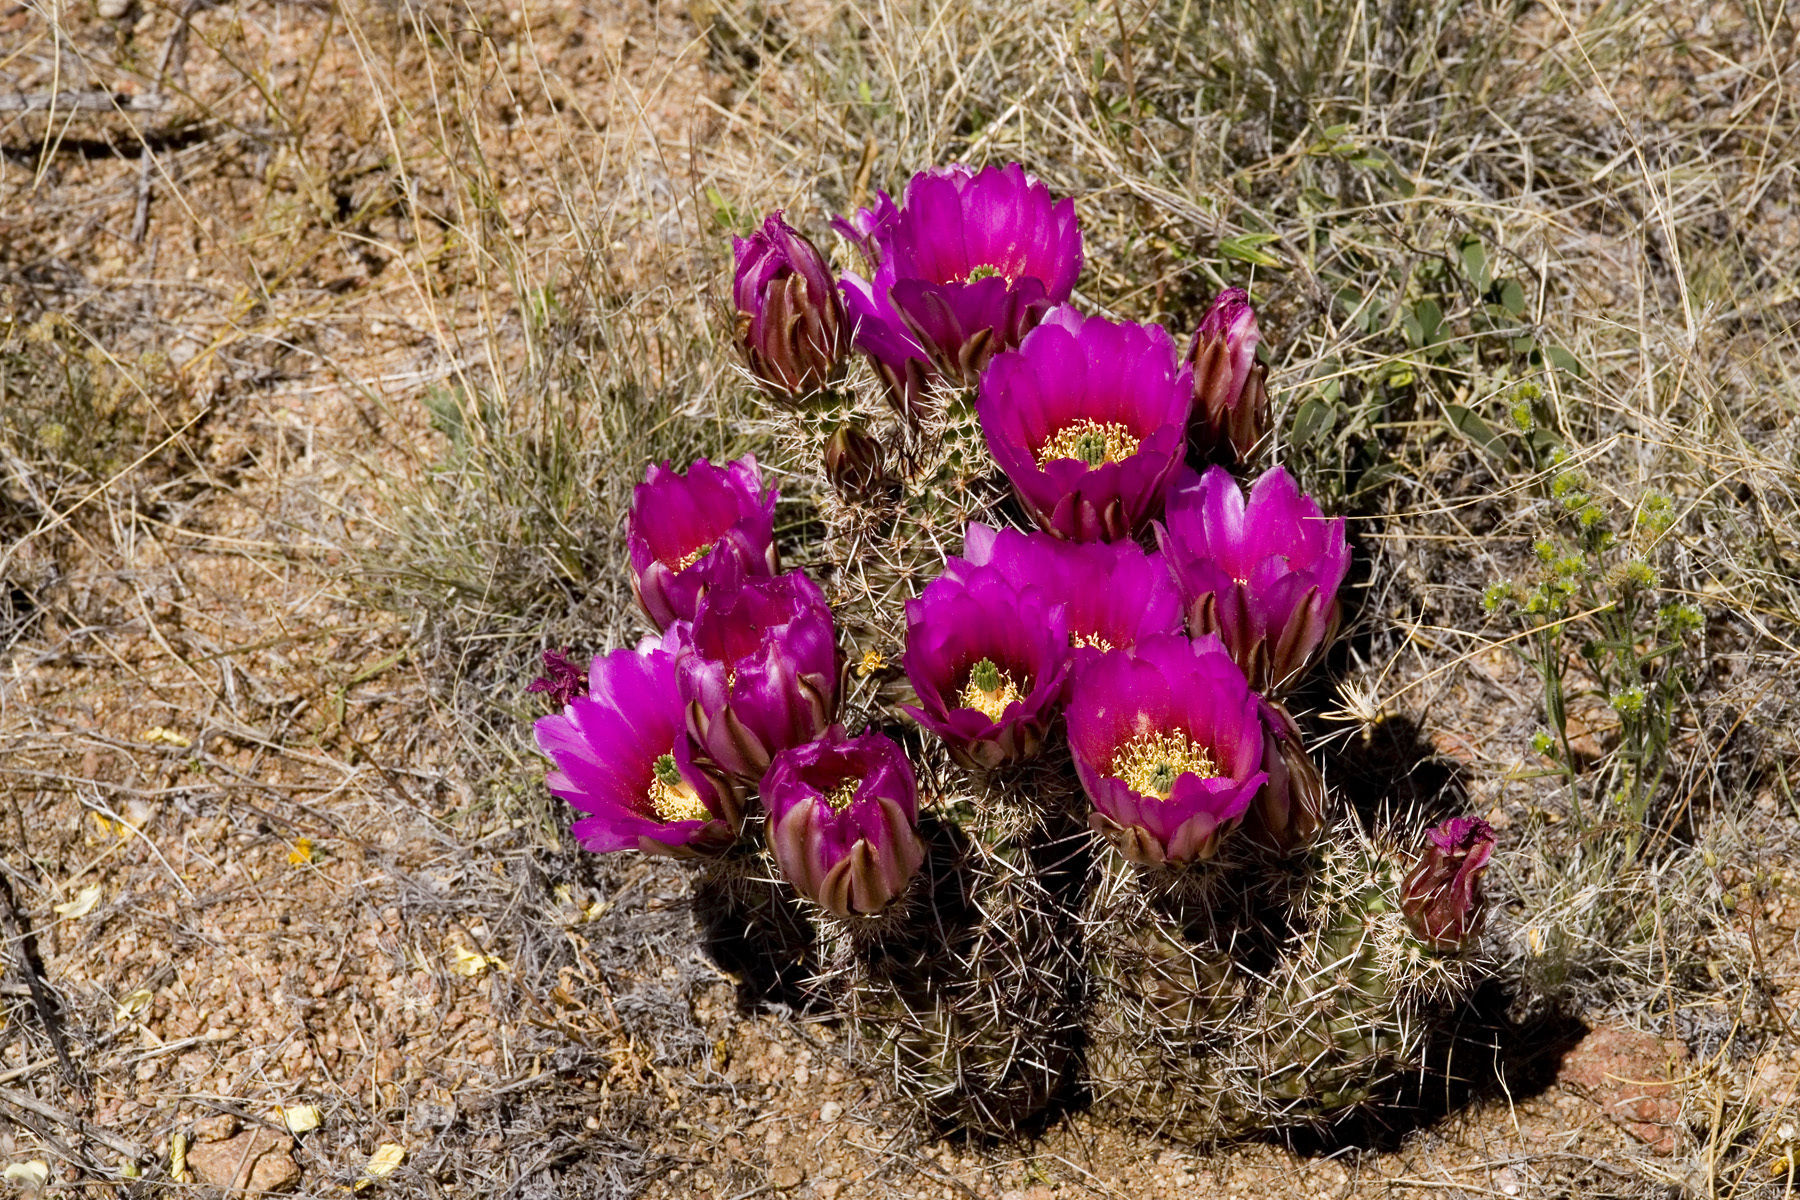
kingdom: Plantae
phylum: Tracheophyta
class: Magnoliopsida
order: Caryophyllales
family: Cactaceae
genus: Echinocereus
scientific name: Echinocereus fendleri
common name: Fendler's hedgehog cactus
